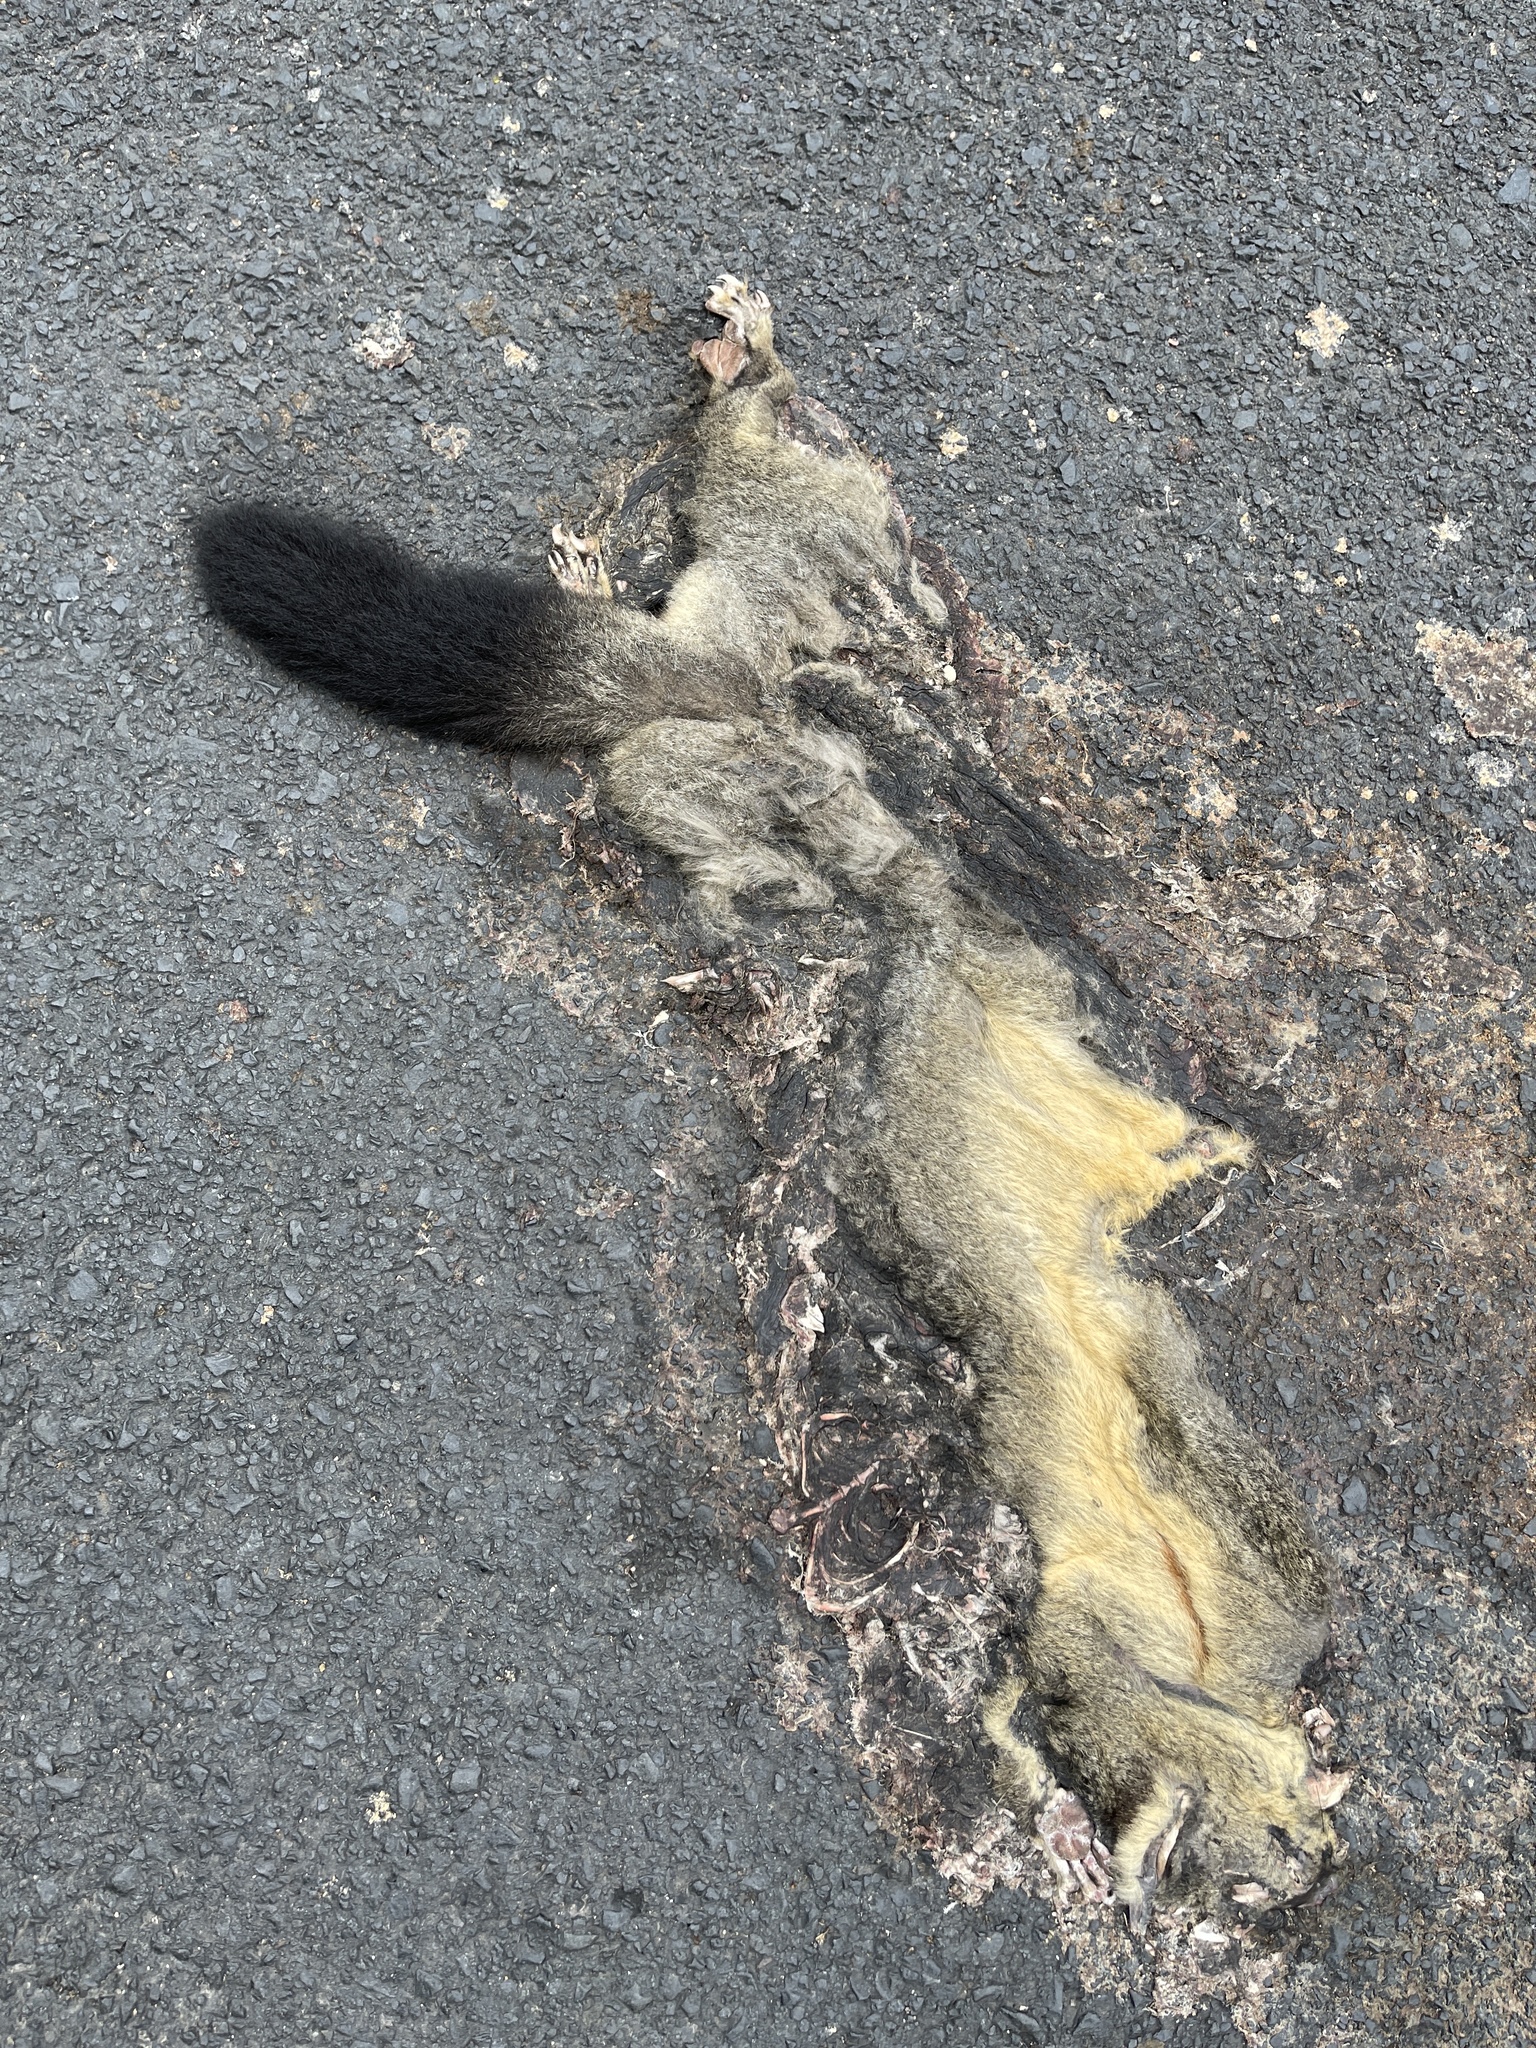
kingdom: Animalia
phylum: Chordata
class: Mammalia
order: Diprotodontia
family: Phalangeridae
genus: Trichosurus
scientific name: Trichosurus vulpecula
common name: Common brushtail
